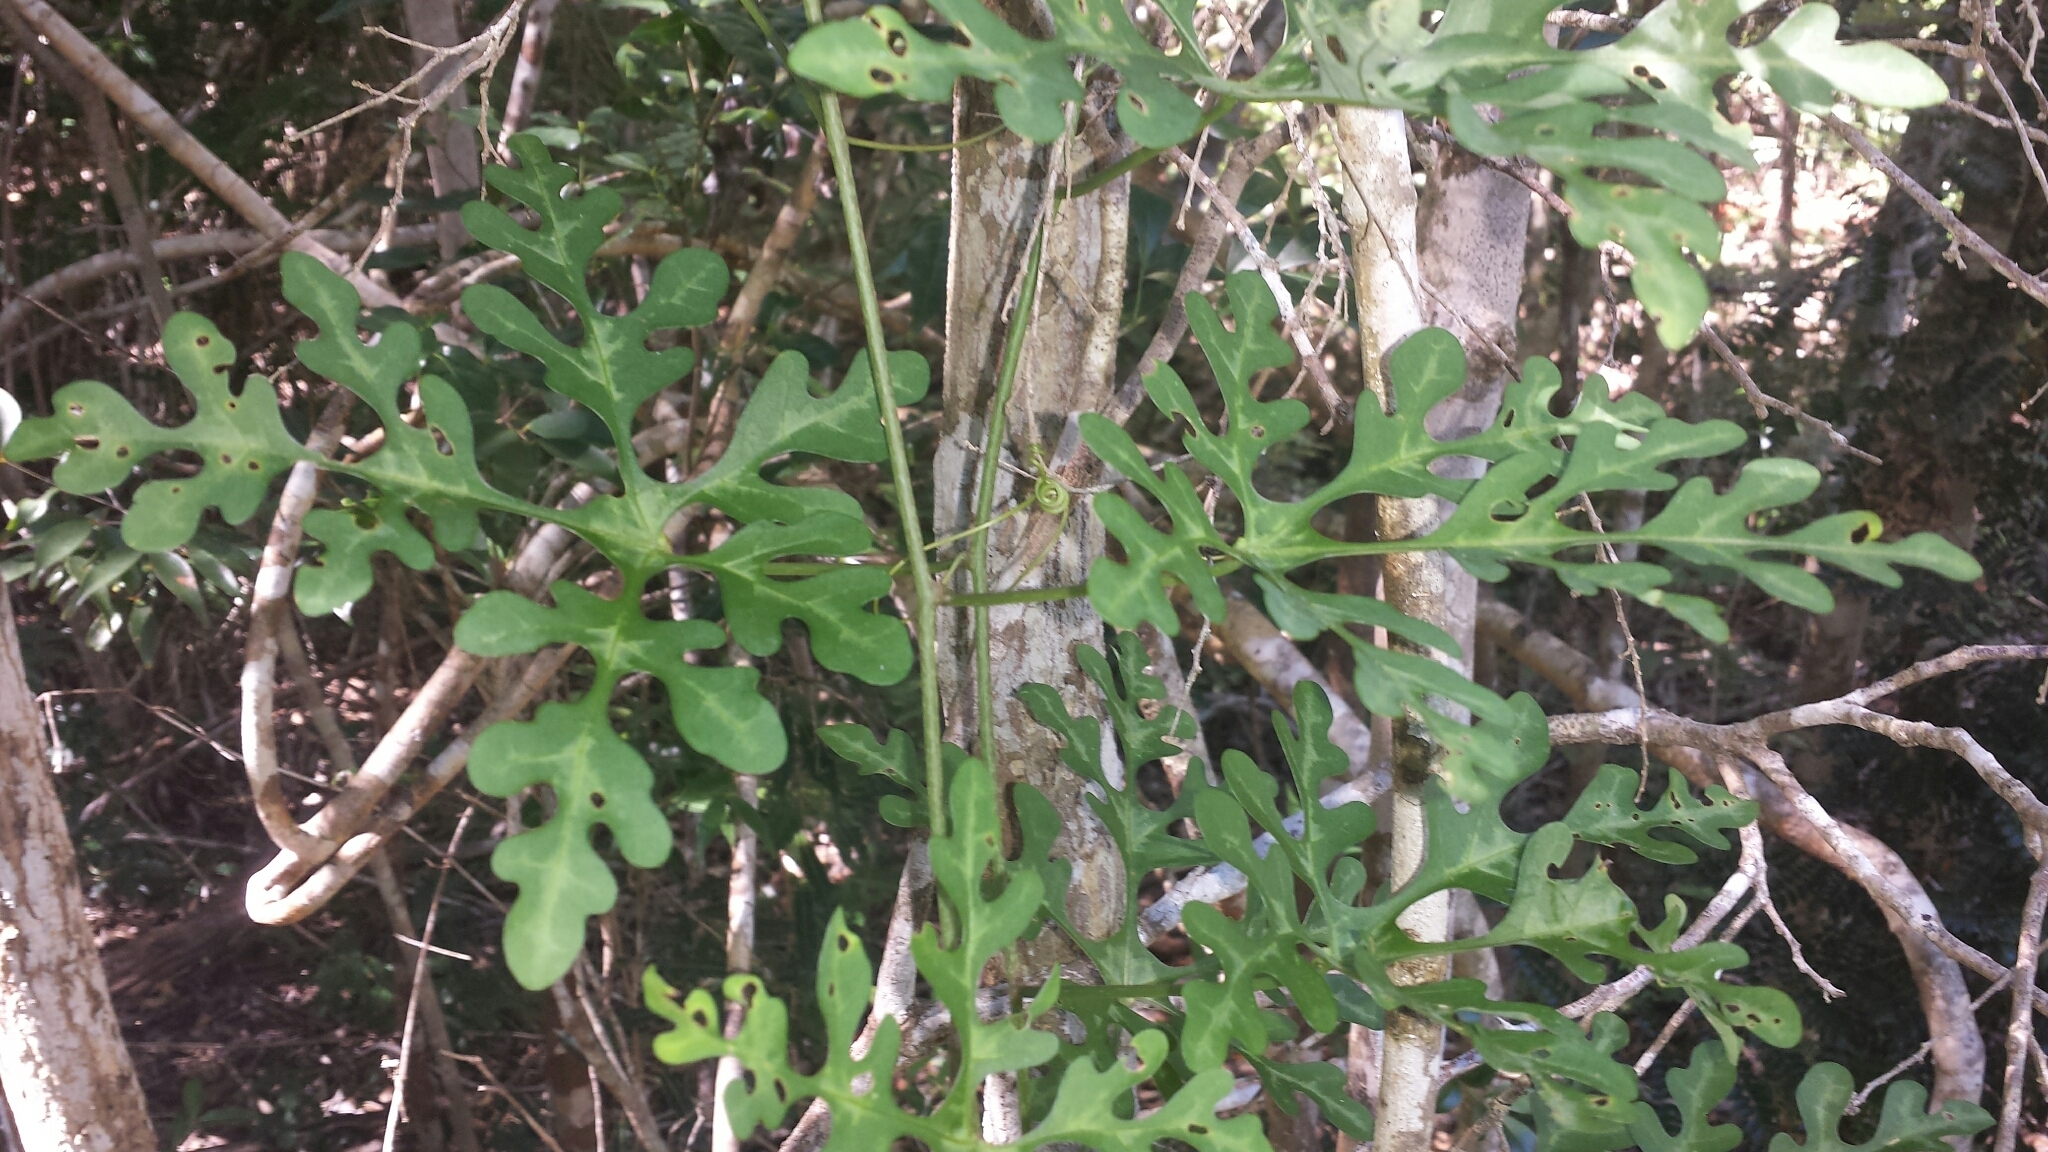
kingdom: Plantae
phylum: Tracheophyta
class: Magnoliopsida
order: Malpighiales
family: Passifloraceae
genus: Adenia
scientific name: Adenia perrieri
